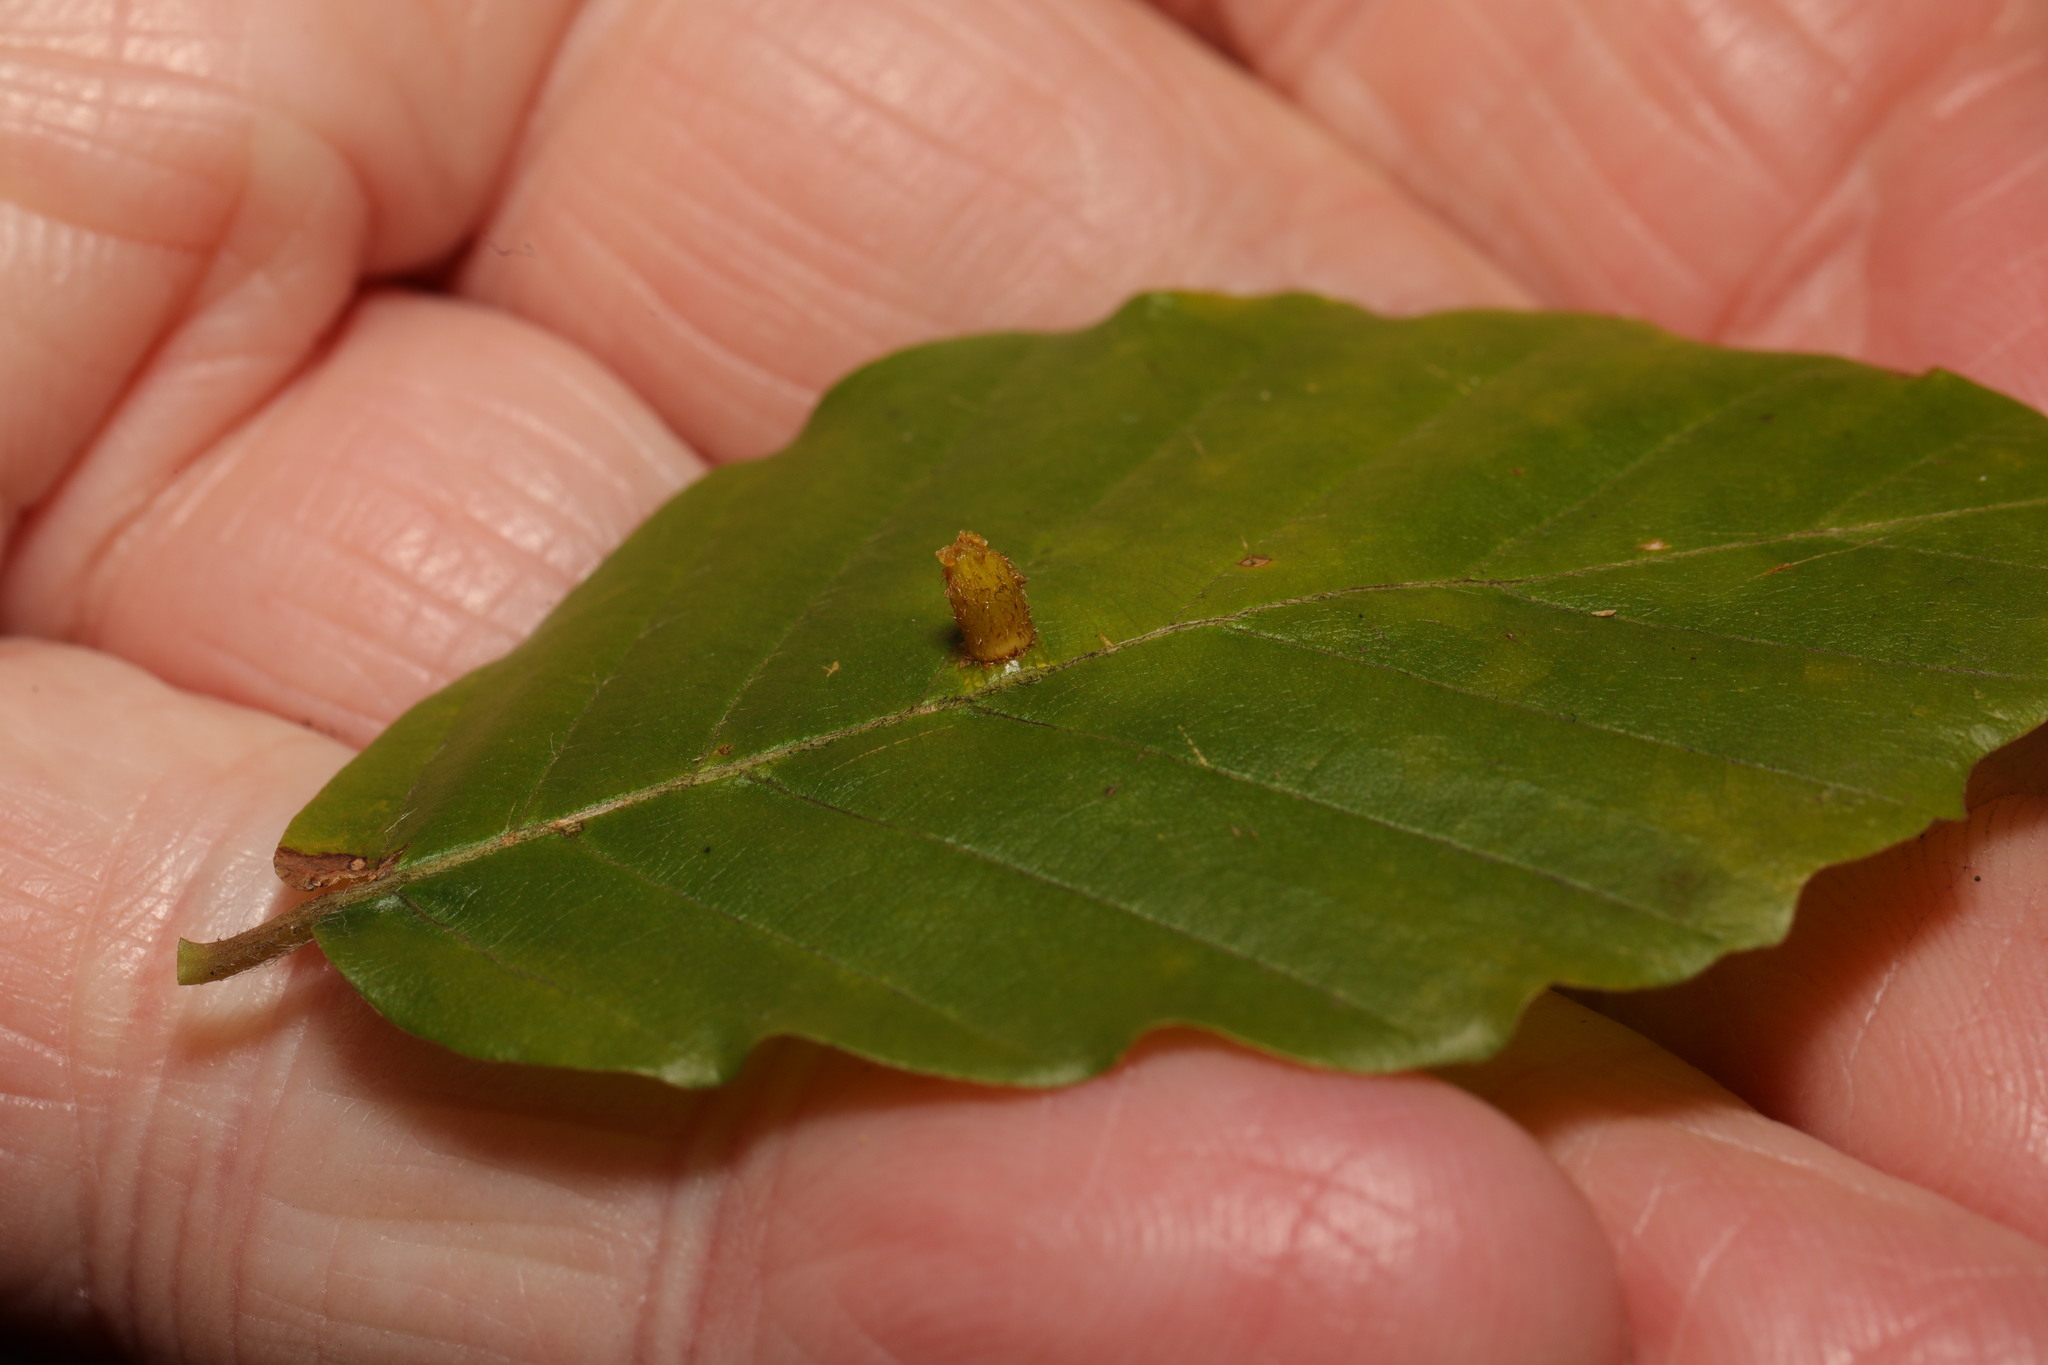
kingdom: Animalia
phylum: Arthropoda
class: Insecta
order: Diptera
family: Cecidomyiidae
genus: Hartigiola
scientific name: Hartigiola annulipes
